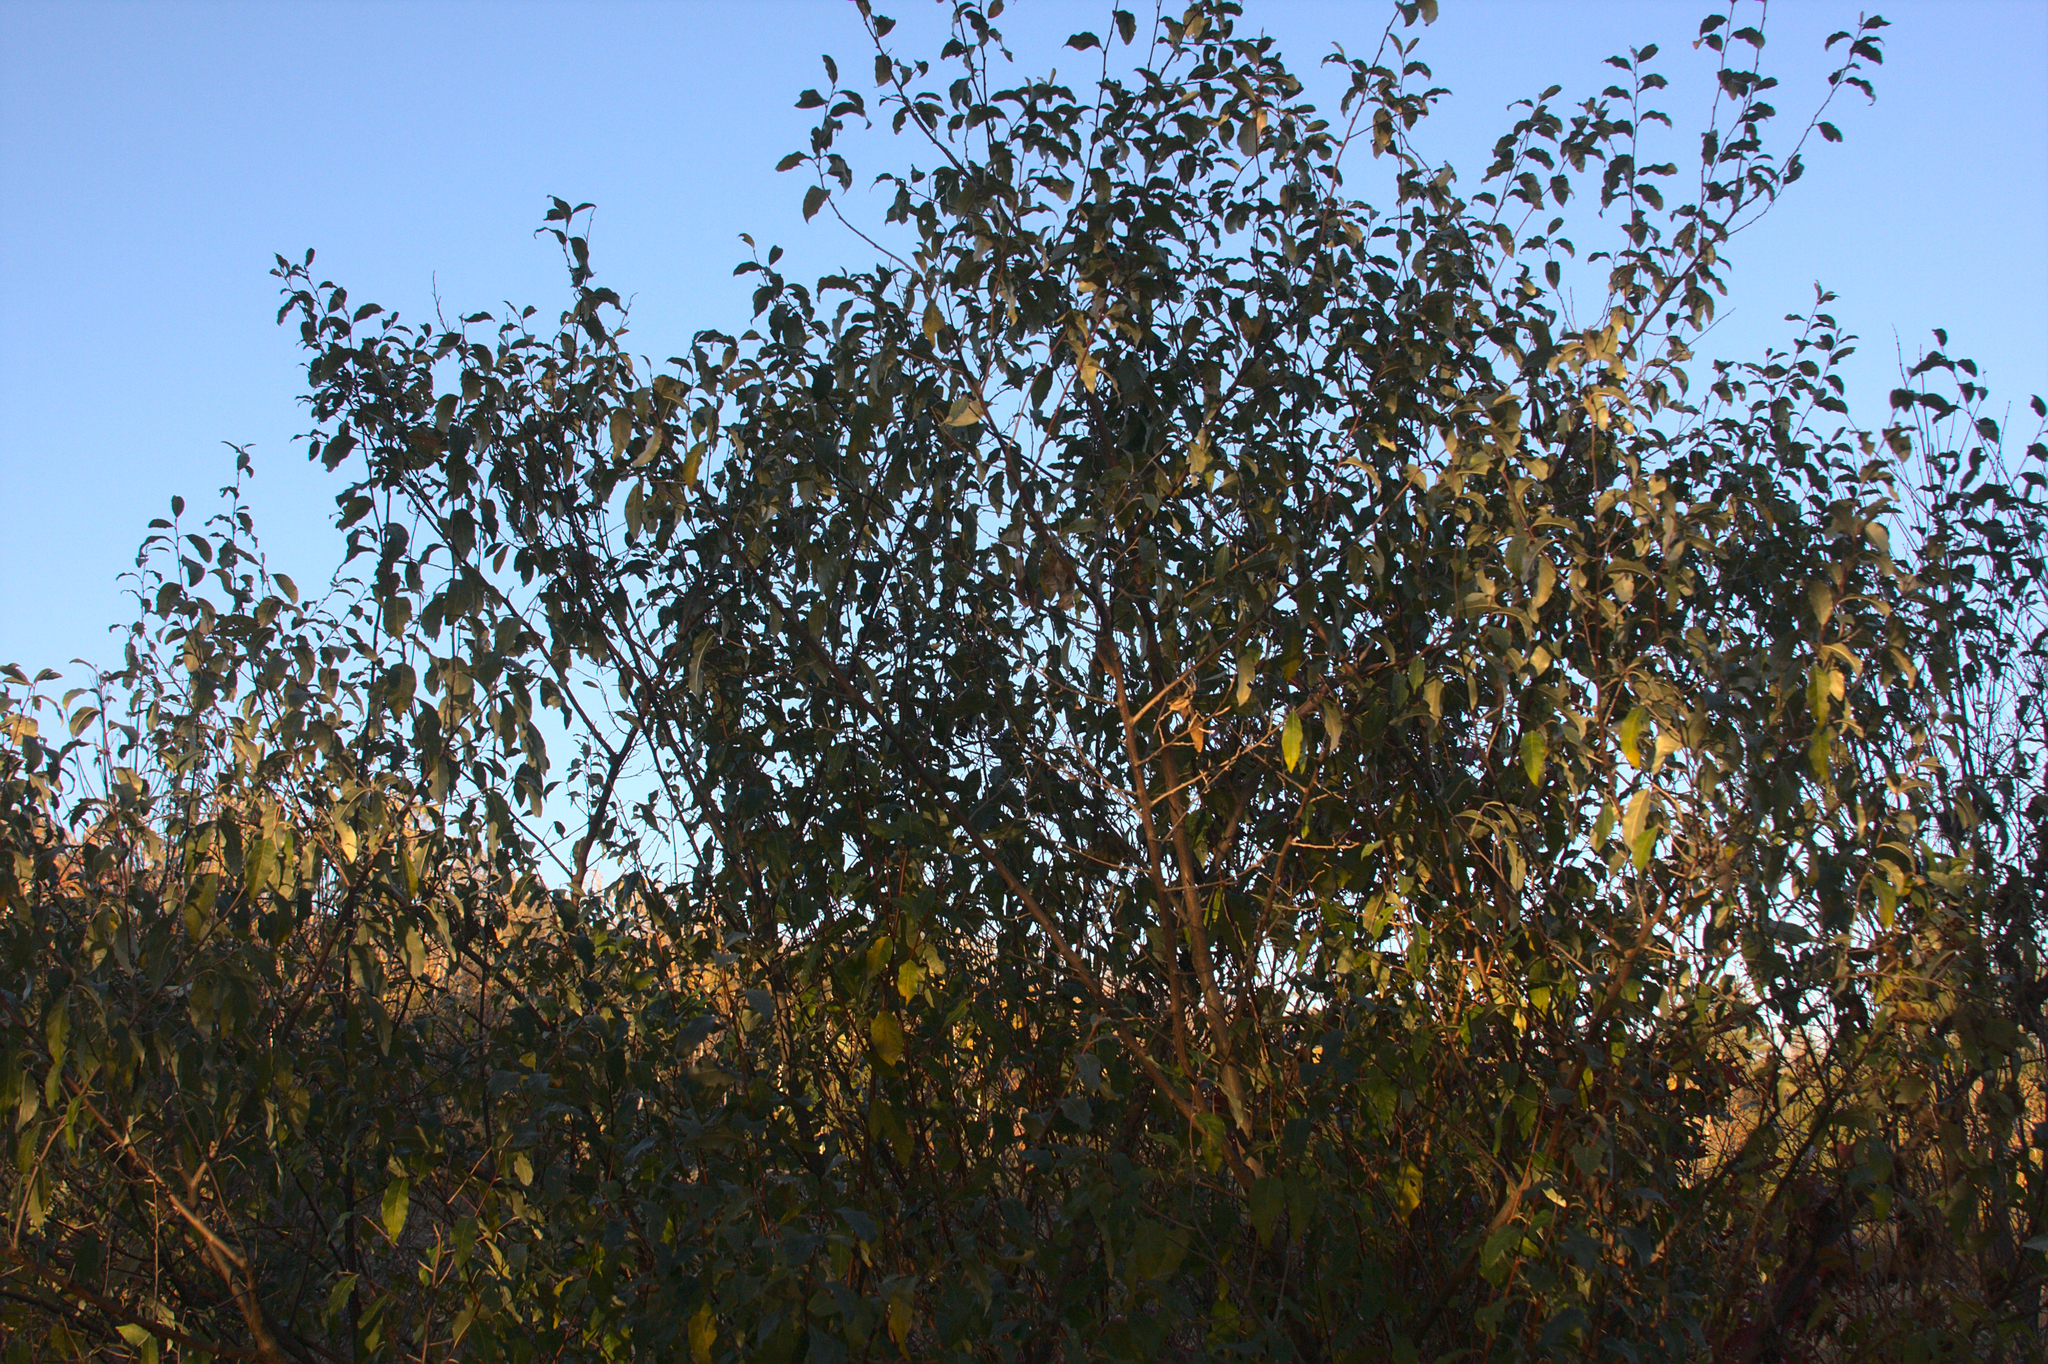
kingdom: Plantae
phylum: Tracheophyta
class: Magnoliopsida
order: Rosales
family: Elaeagnaceae
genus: Elaeagnus
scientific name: Elaeagnus umbellata
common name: Autumn olive
